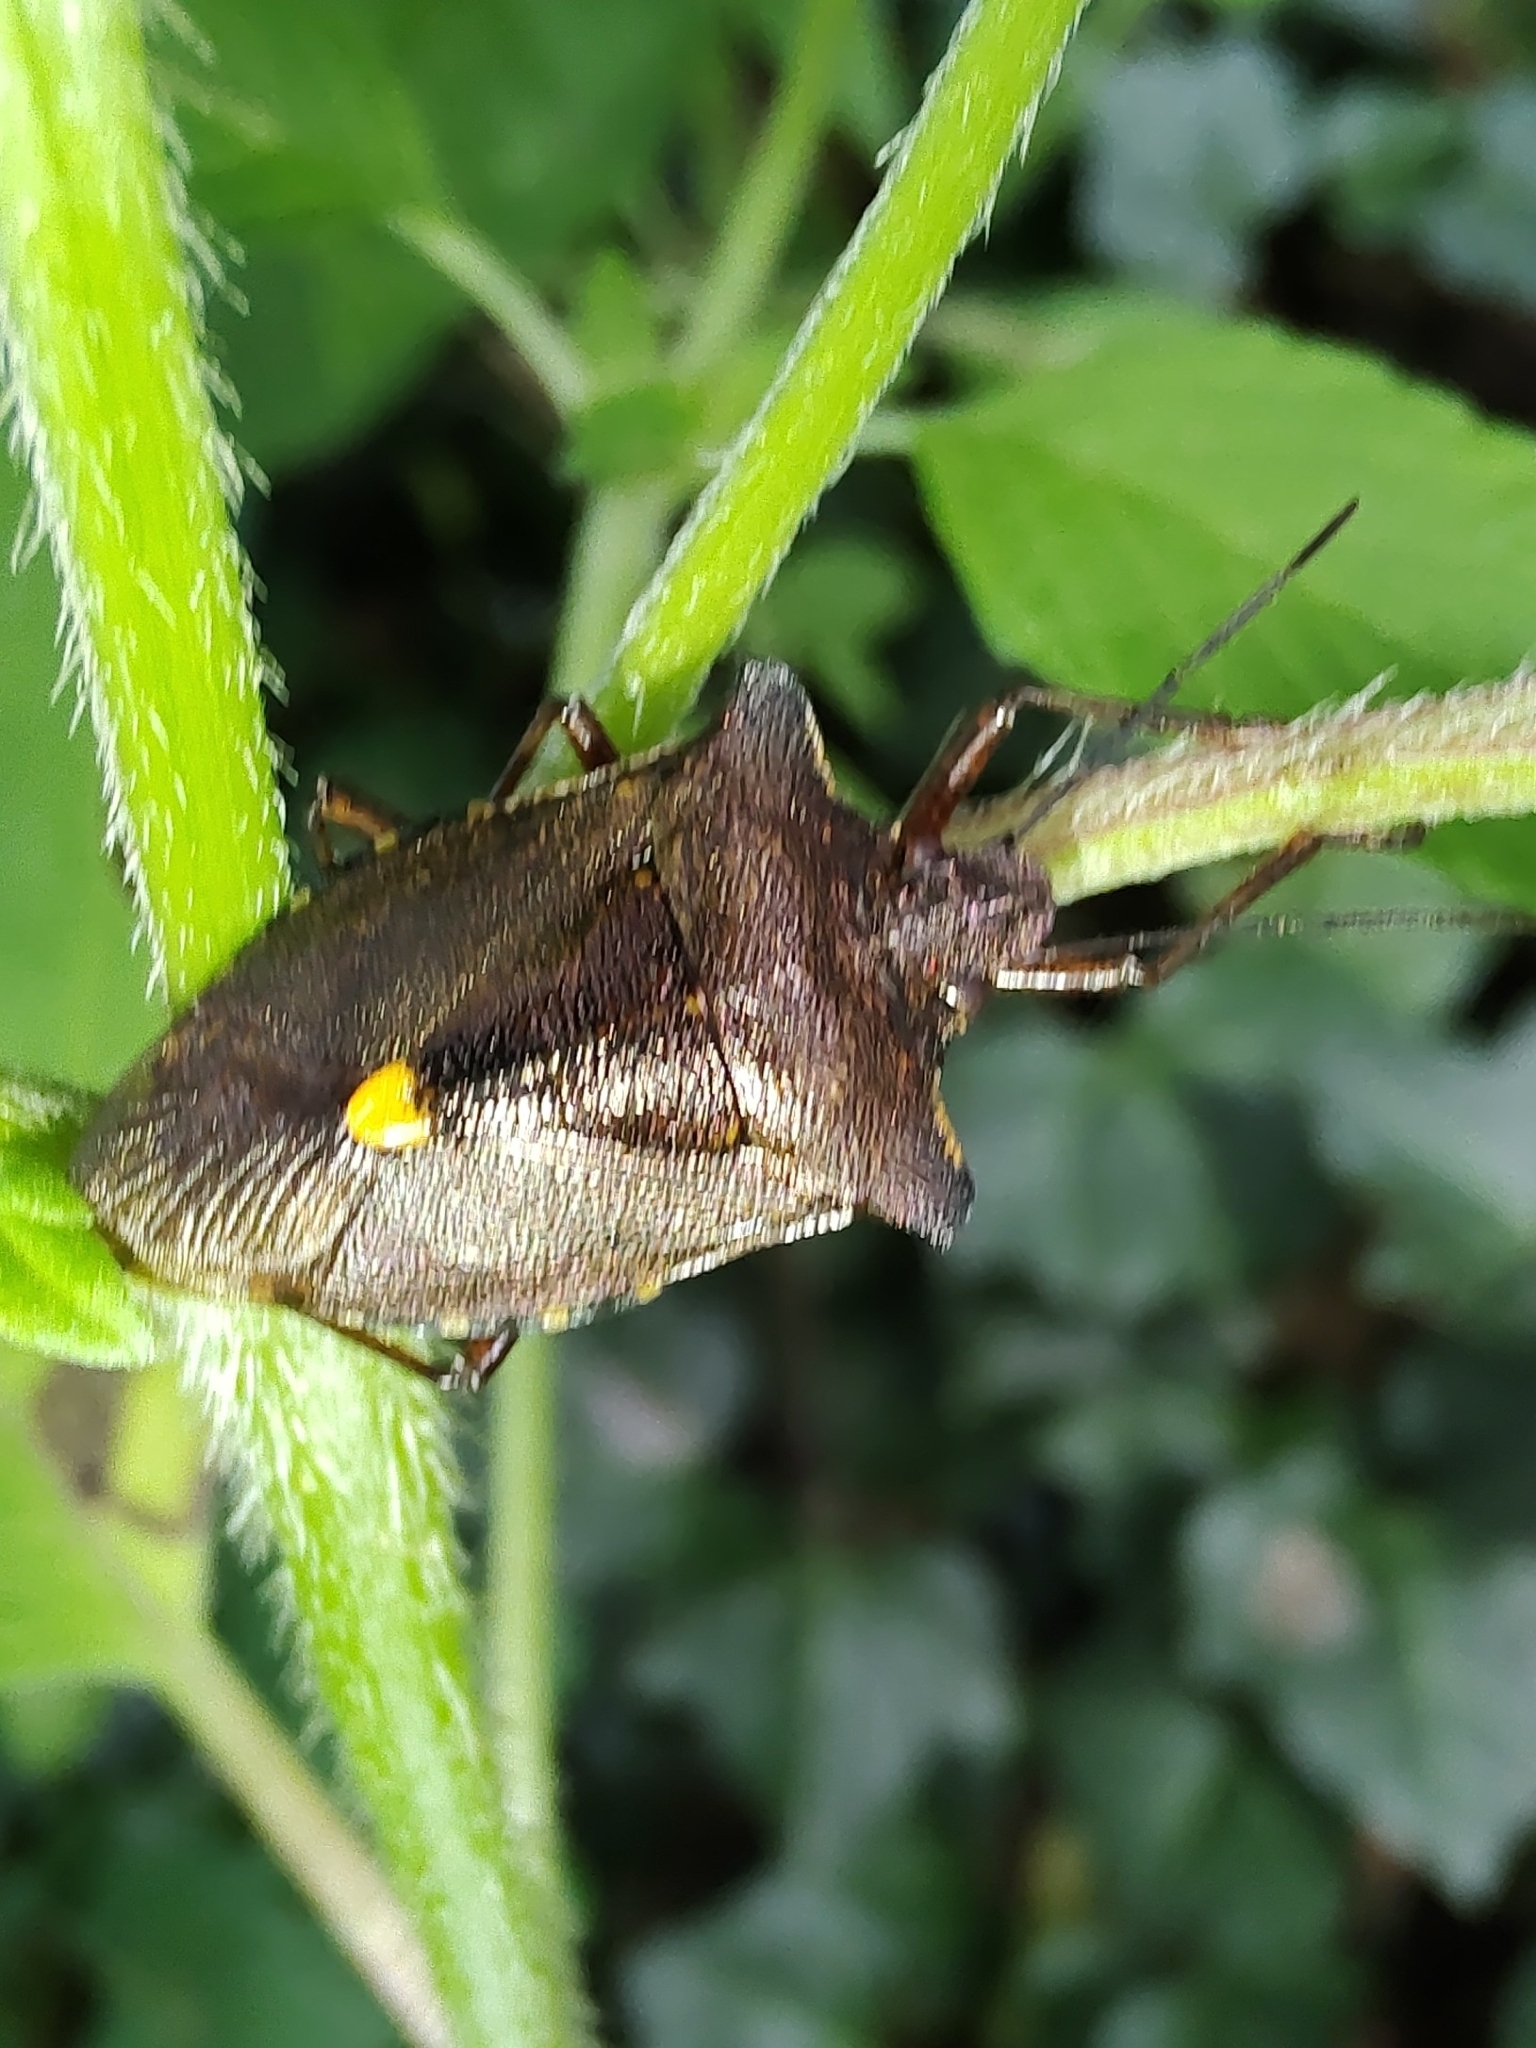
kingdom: Animalia
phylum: Arthropoda
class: Insecta
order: Hemiptera
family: Pentatomidae
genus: Pentatoma
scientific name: Pentatoma rufipes
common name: Forest bug
